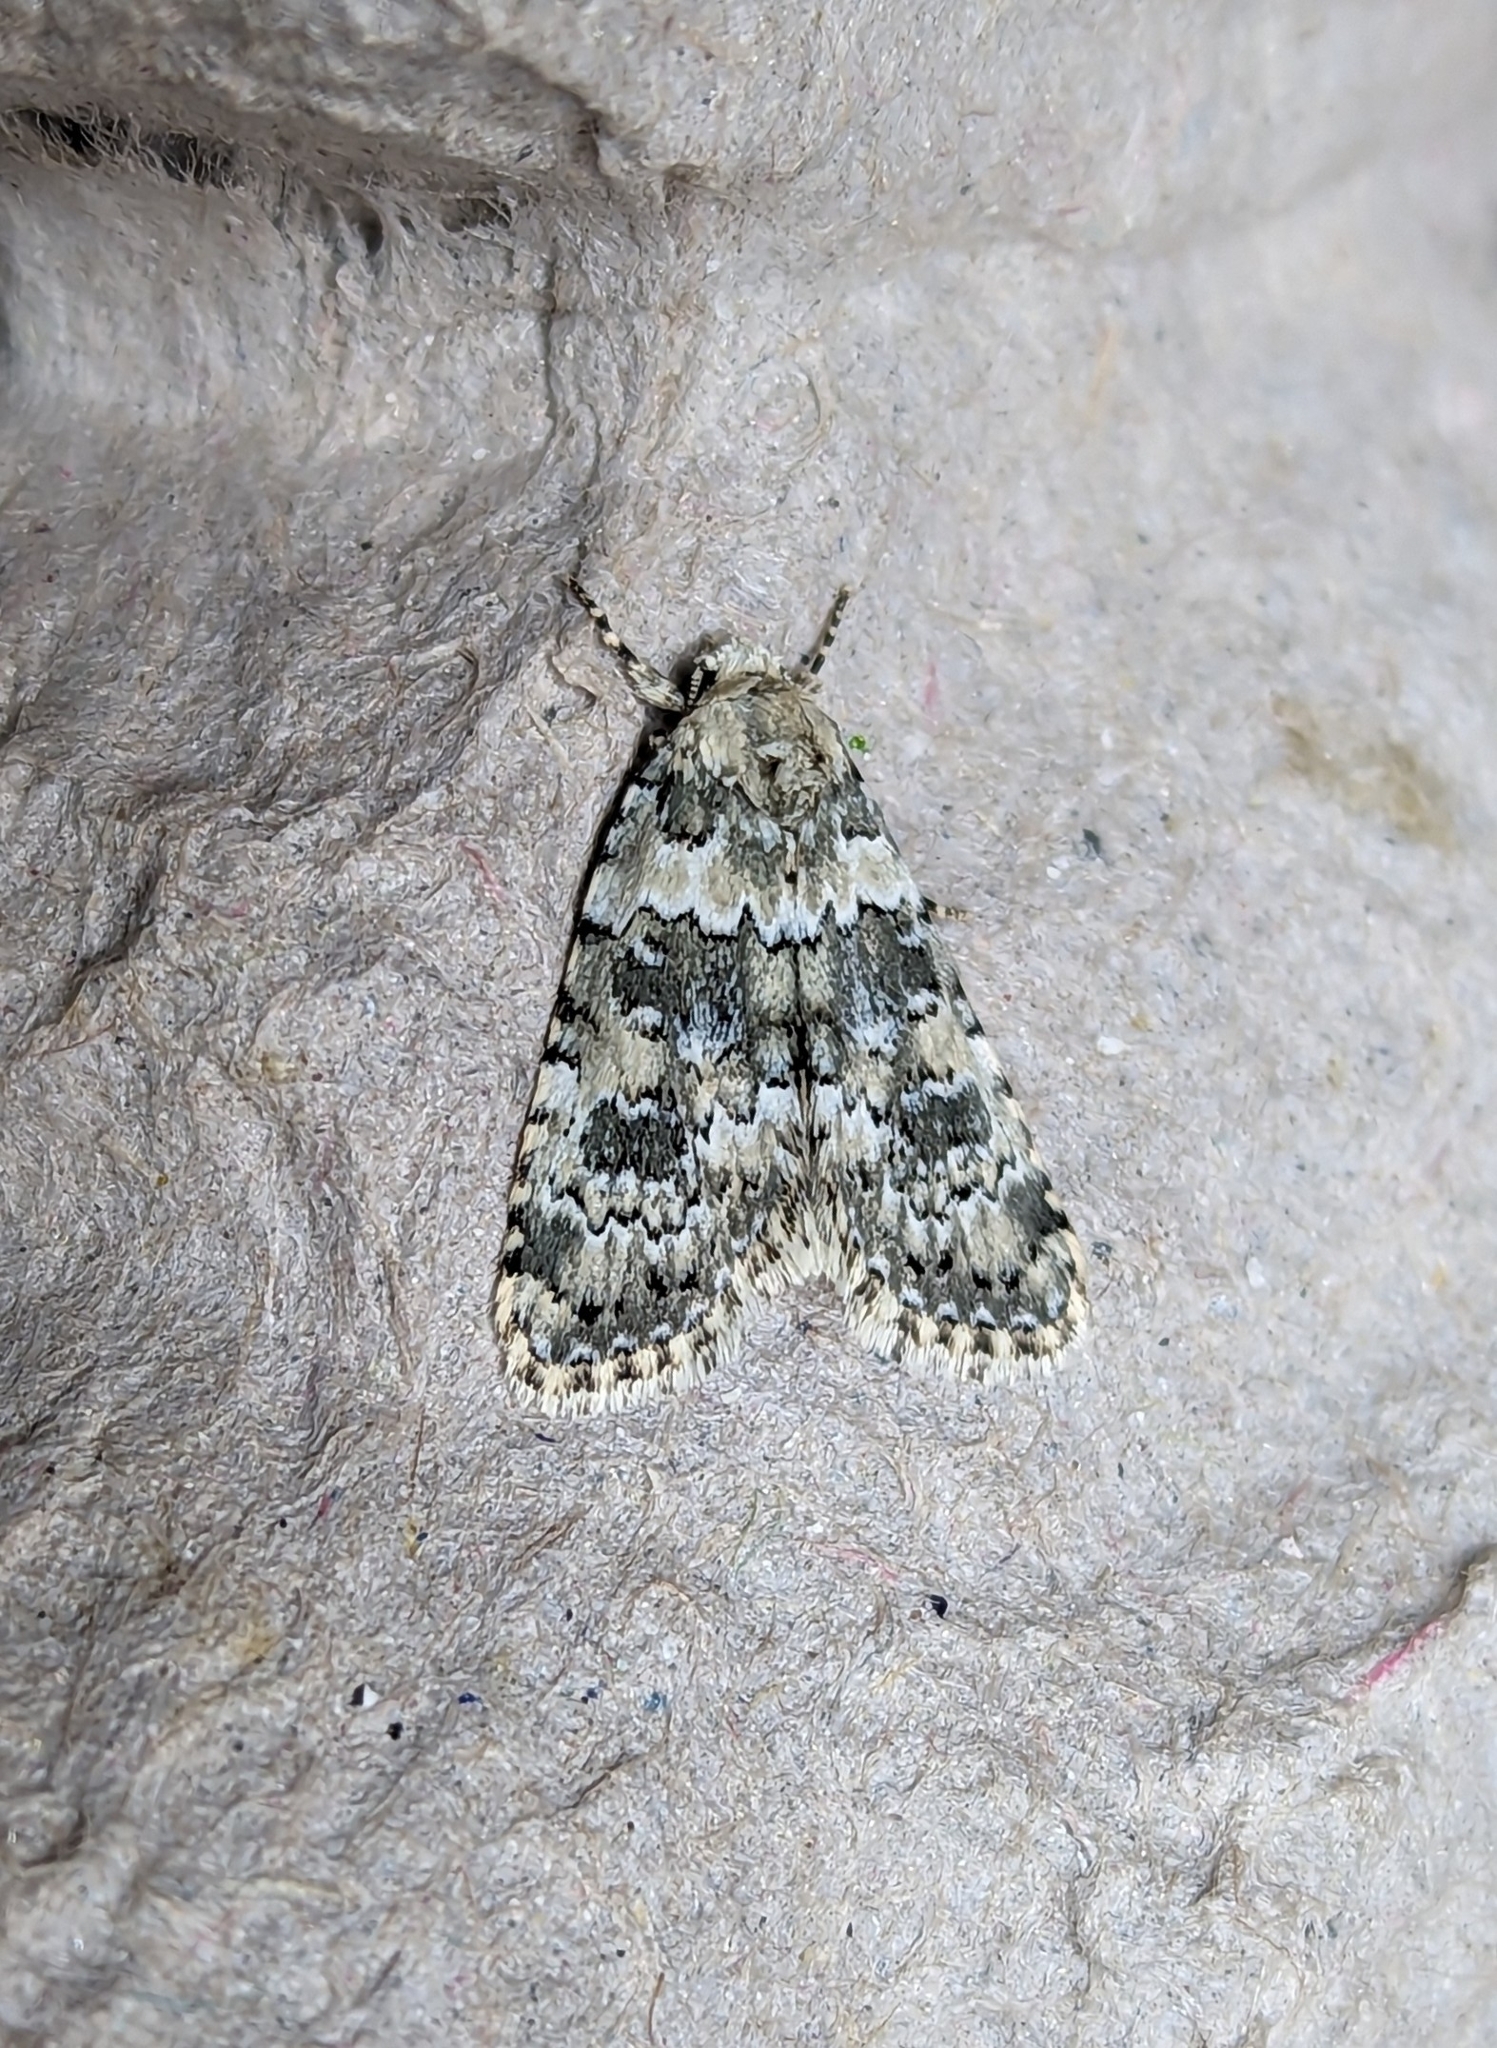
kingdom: Animalia
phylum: Arthropoda
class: Insecta
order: Lepidoptera
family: Noctuidae
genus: Bryophila
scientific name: Bryophila domestica
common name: Marbled beauty
